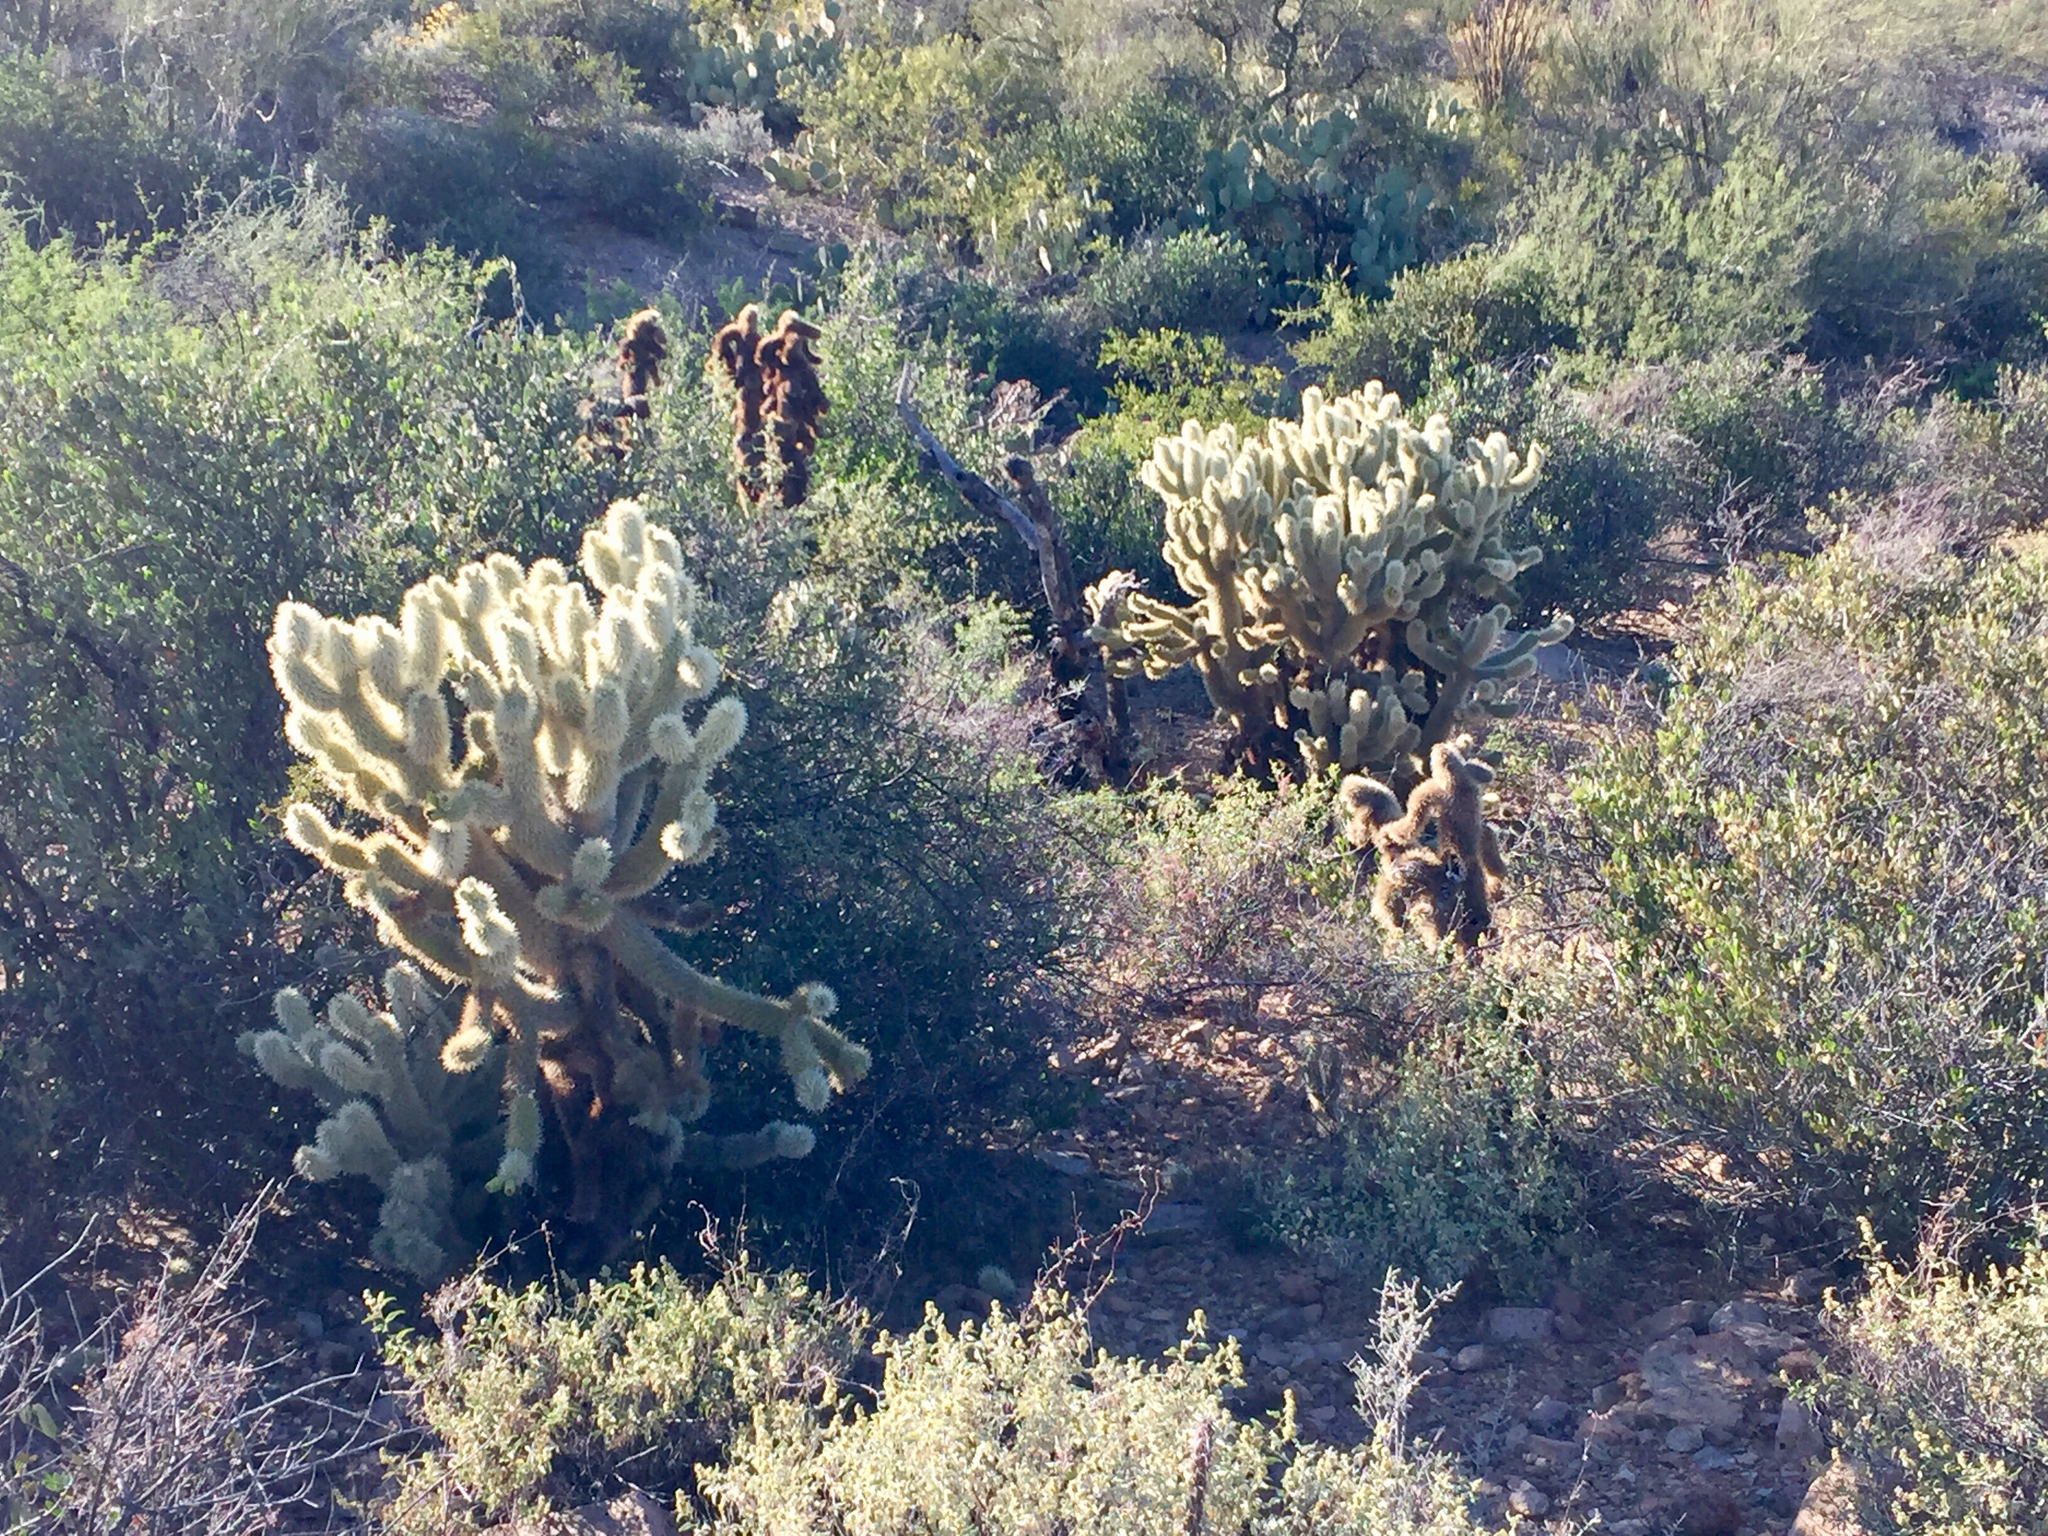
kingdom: Plantae
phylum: Tracheophyta
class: Magnoliopsida
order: Caryophyllales
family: Cactaceae
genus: Cylindropuntia
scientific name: Cylindropuntia fosbergii
